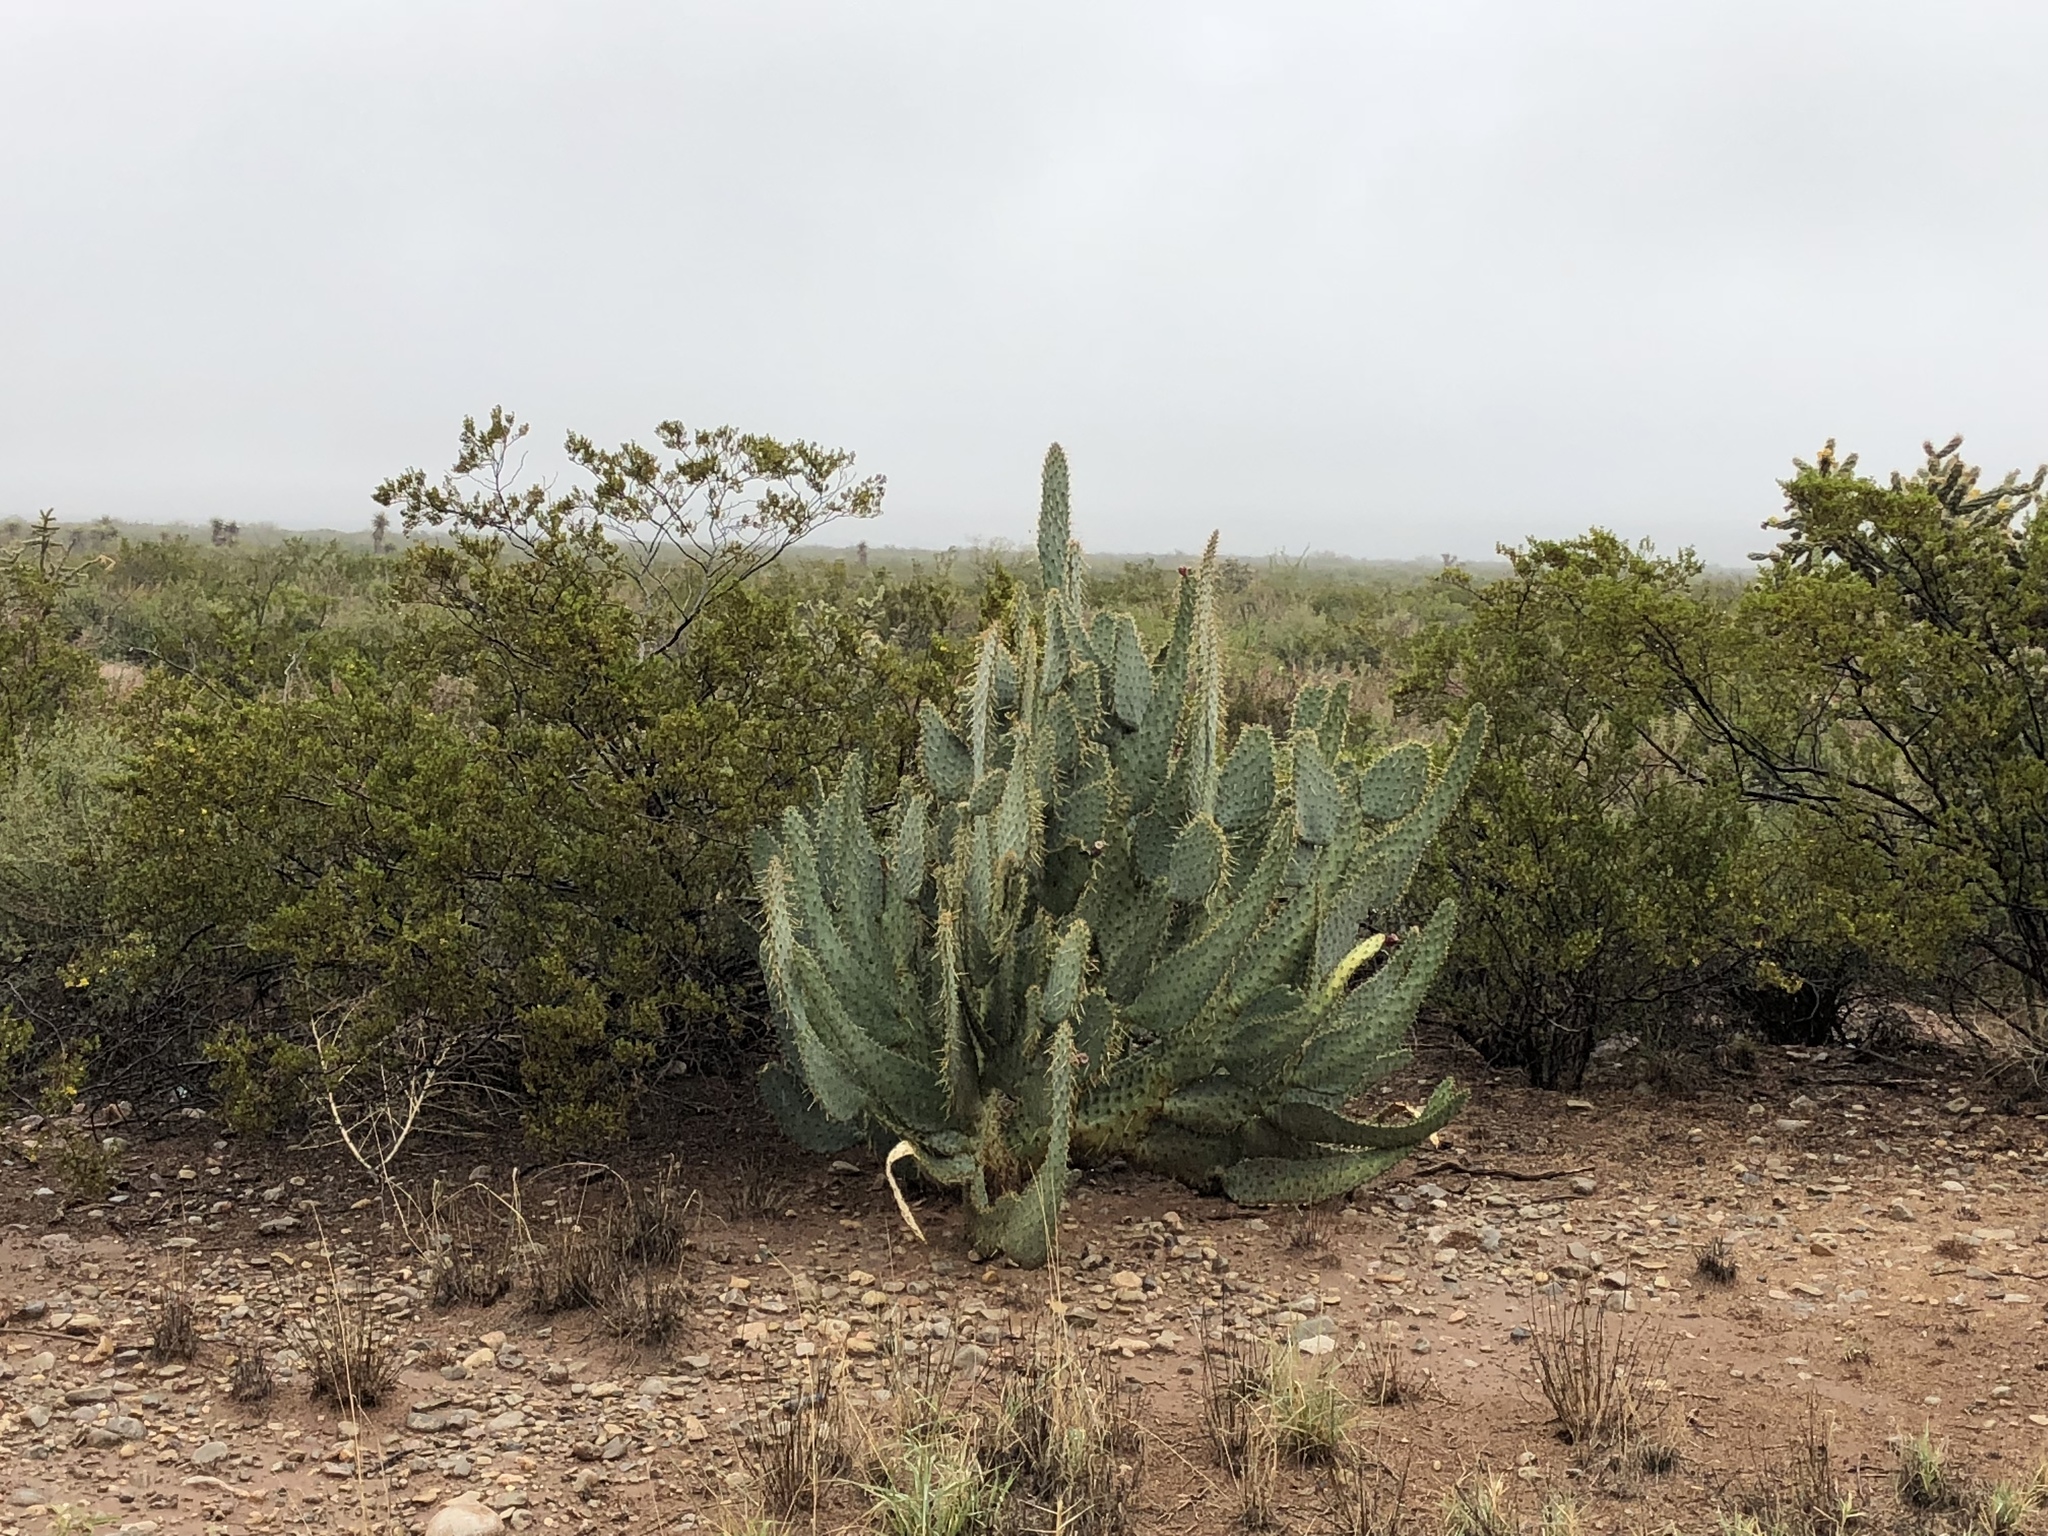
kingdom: Plantae
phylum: Tracheophyta
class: Magnoliopsida
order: Caryophyllales
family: Cactaceae
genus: Opuntia
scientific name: Opuntia engelmannii
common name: Cactus-apple
